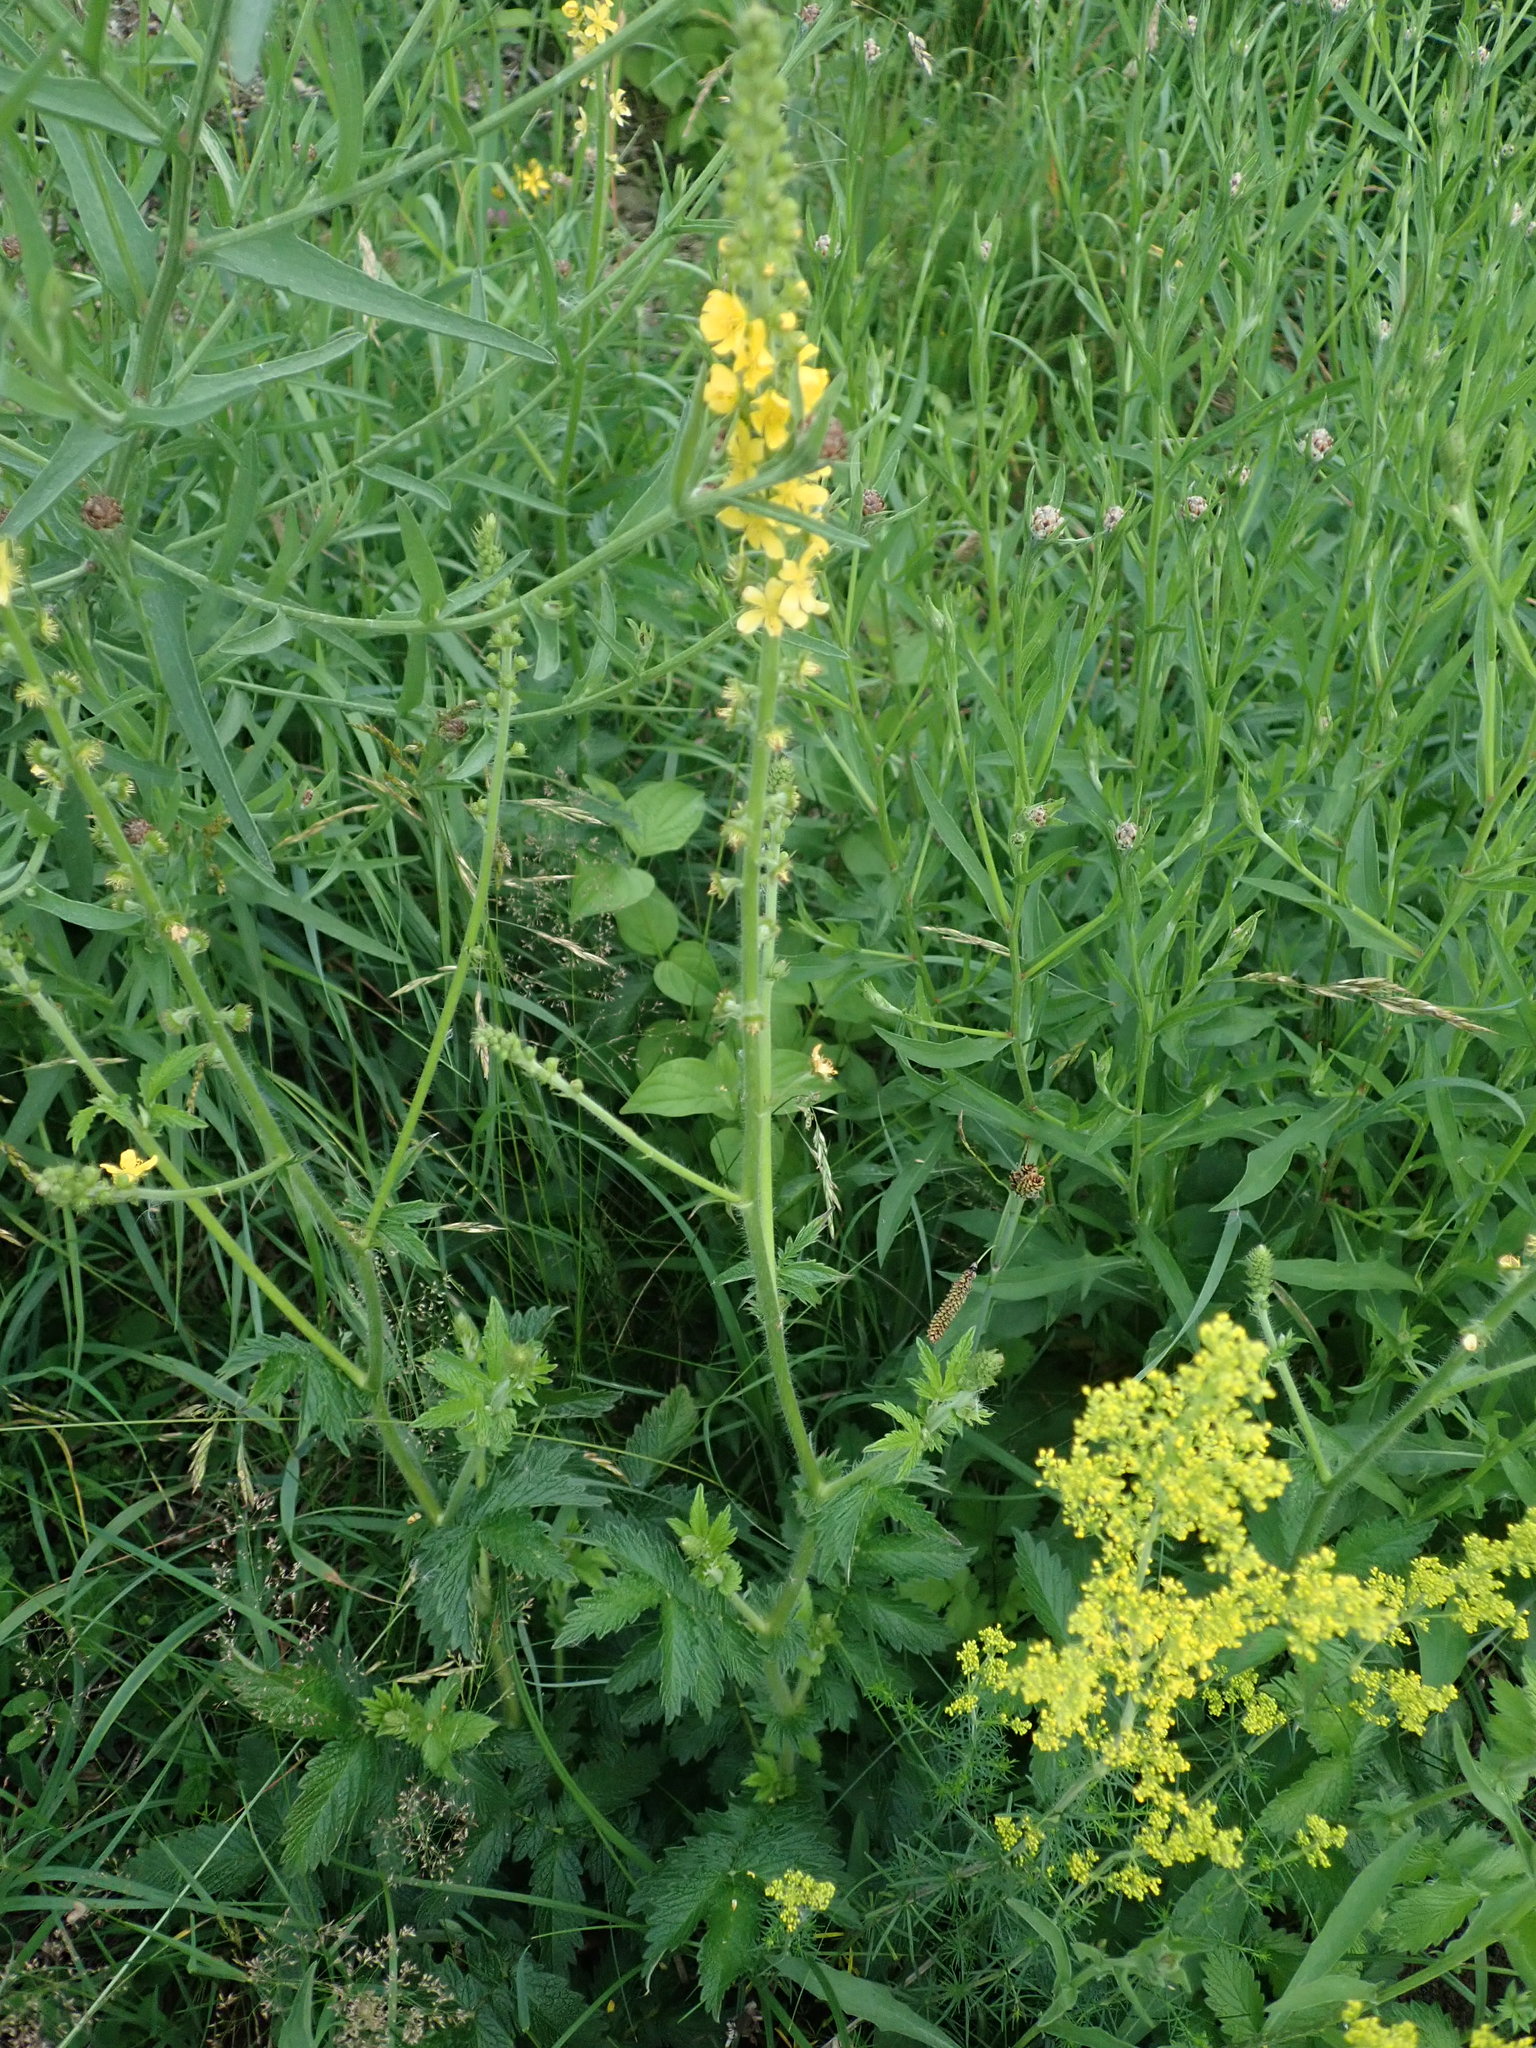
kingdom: Plantae
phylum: Tracheophyta
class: Magnoliopsida
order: Rosales
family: Rosaceae
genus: Agrimonia
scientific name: Agrimonia eupatoria
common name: Agrimony
